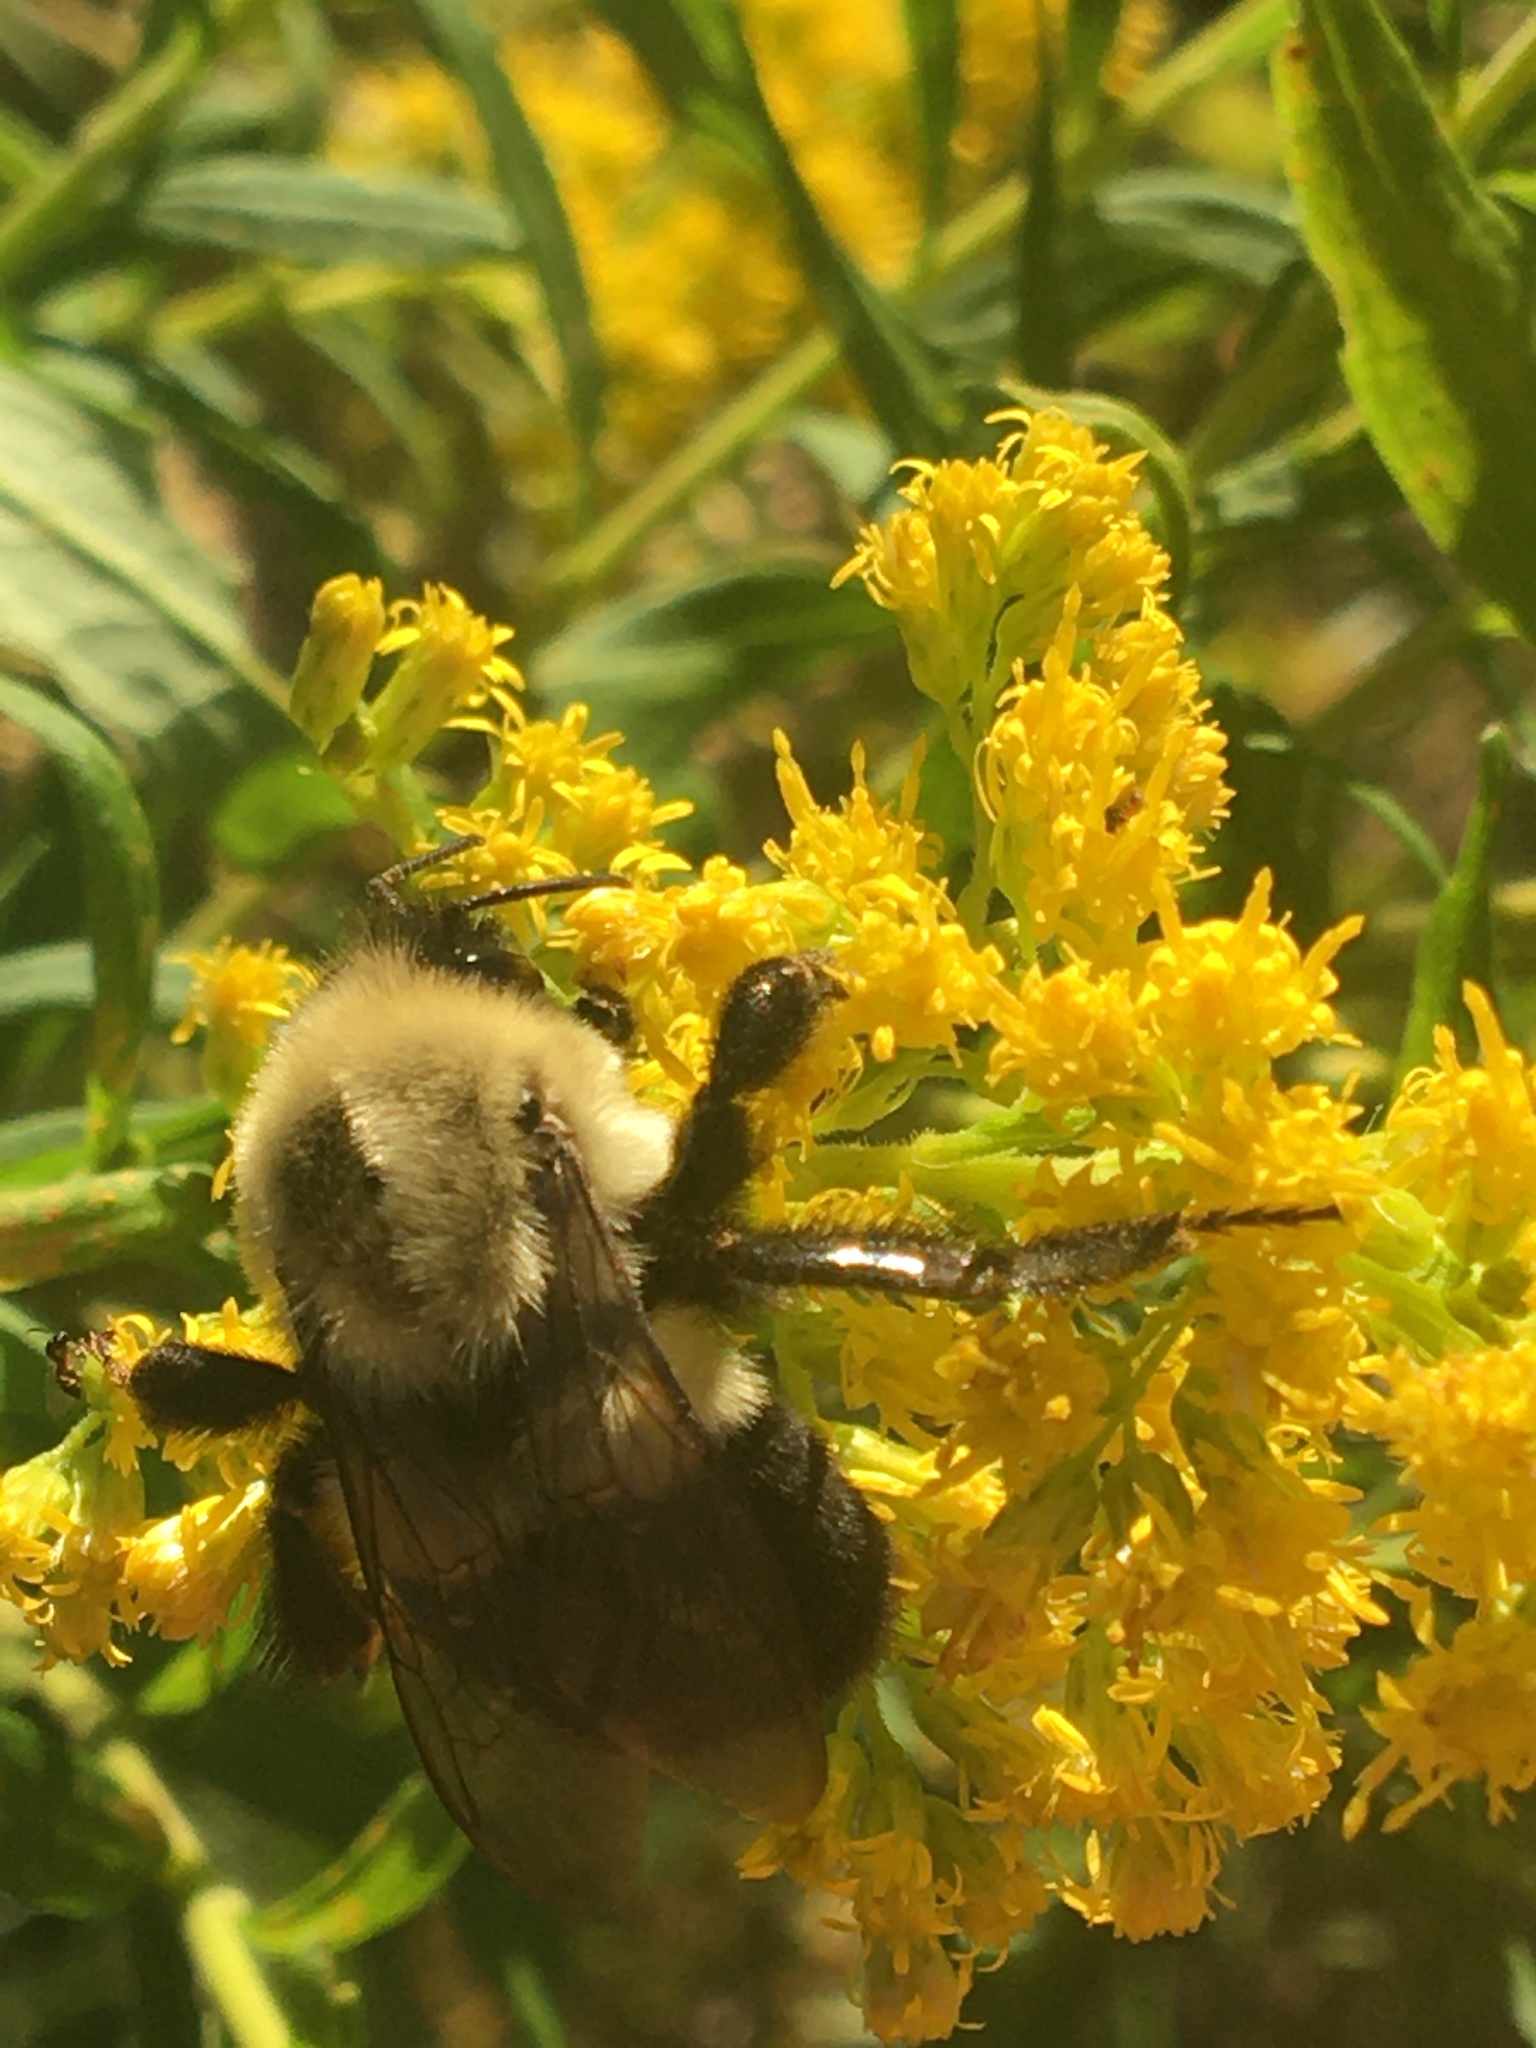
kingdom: Animalia
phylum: Arthropoda
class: Insecta
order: Hymenoptera
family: Apidae
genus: Bombus
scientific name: Bombus impatiens
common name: Common eastern bumble bee
